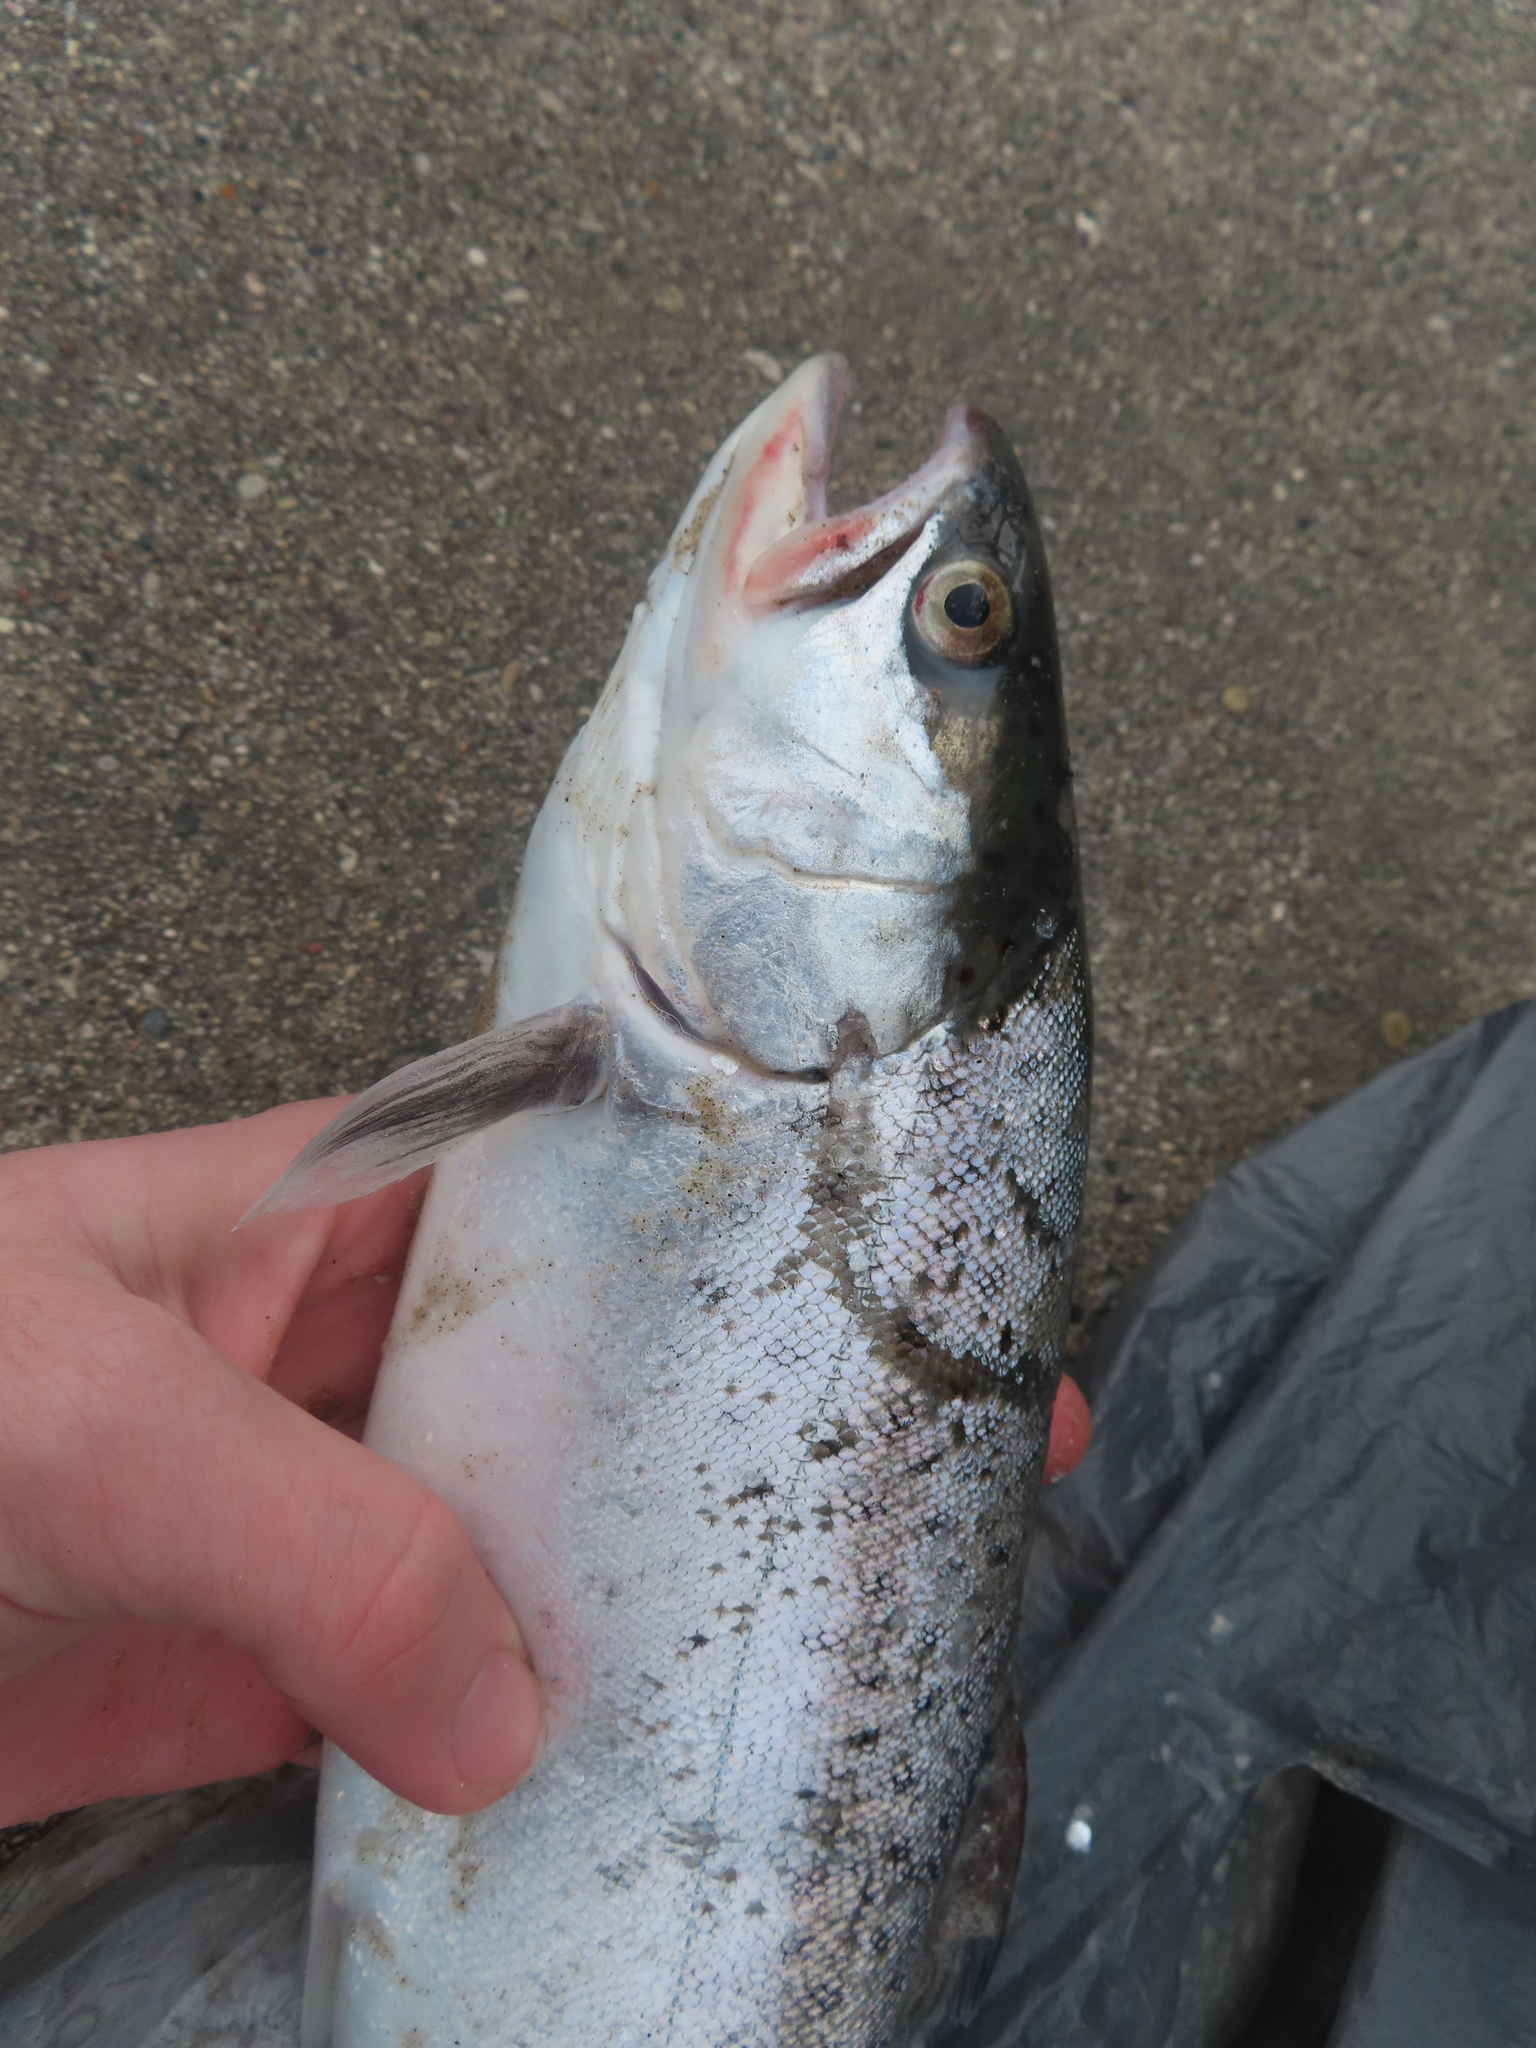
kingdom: Animalia
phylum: Chordata
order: Salmoniformes
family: Salmonidae
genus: Salmo
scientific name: Salmo trutta
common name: Brown trout
